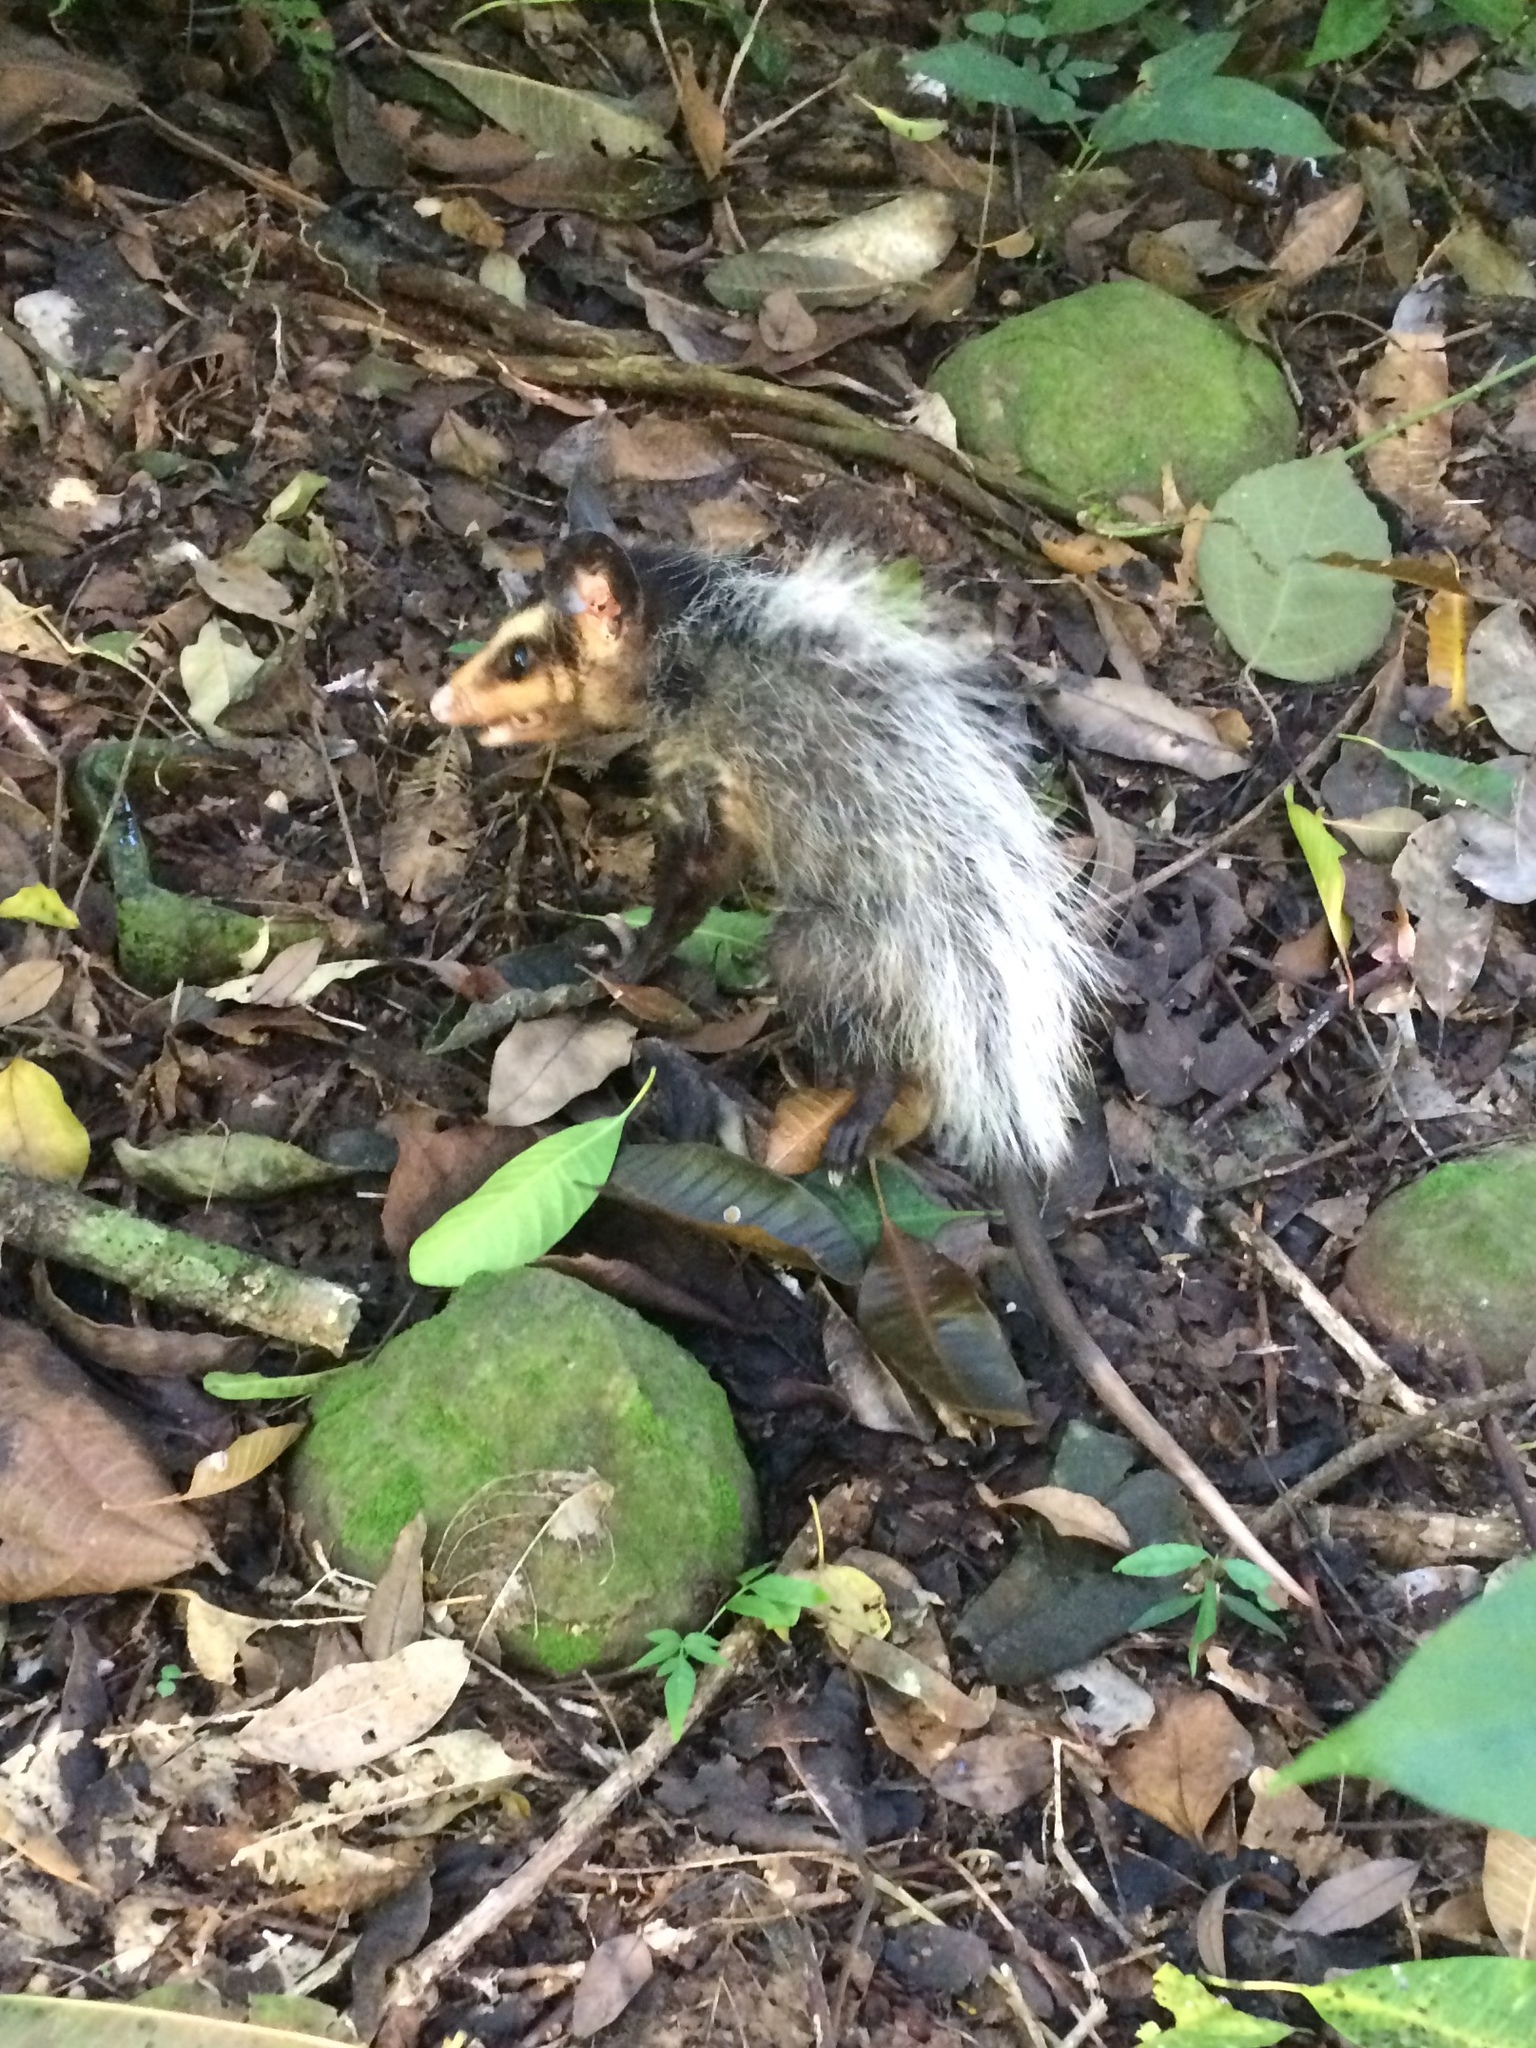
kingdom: Animalia
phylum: Chordata
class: Mammalia
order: Didelphimorphia
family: Didelphidae
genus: Didelphis
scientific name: Didelphis aurita
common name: Big-eared opossum
